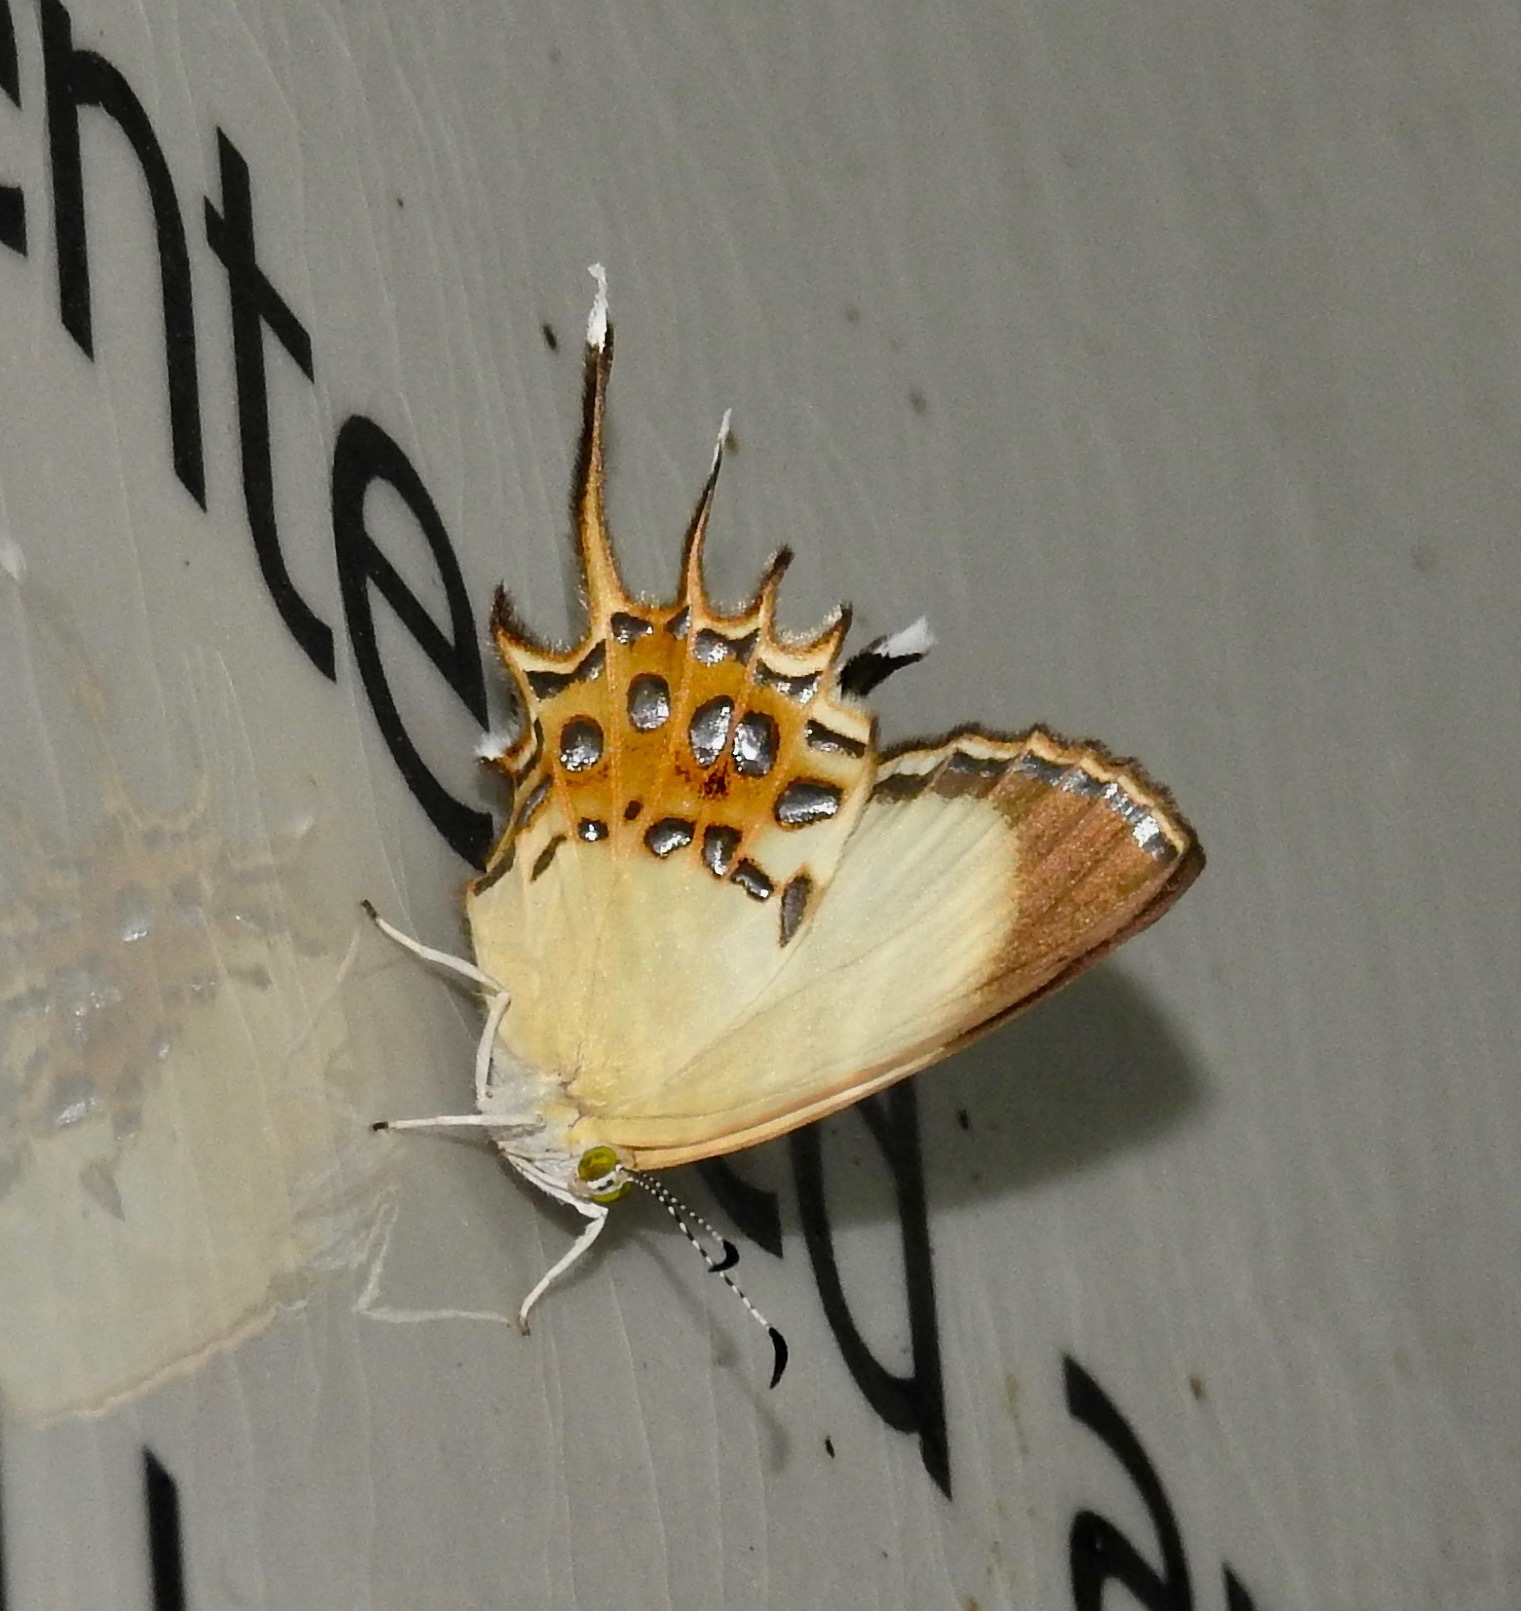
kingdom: Animalia
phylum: Arthropoda
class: Insecta
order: Lepidoptera
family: Riodinidae
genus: Helicopis
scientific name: Helicopis cupido
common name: Spangled cupid
